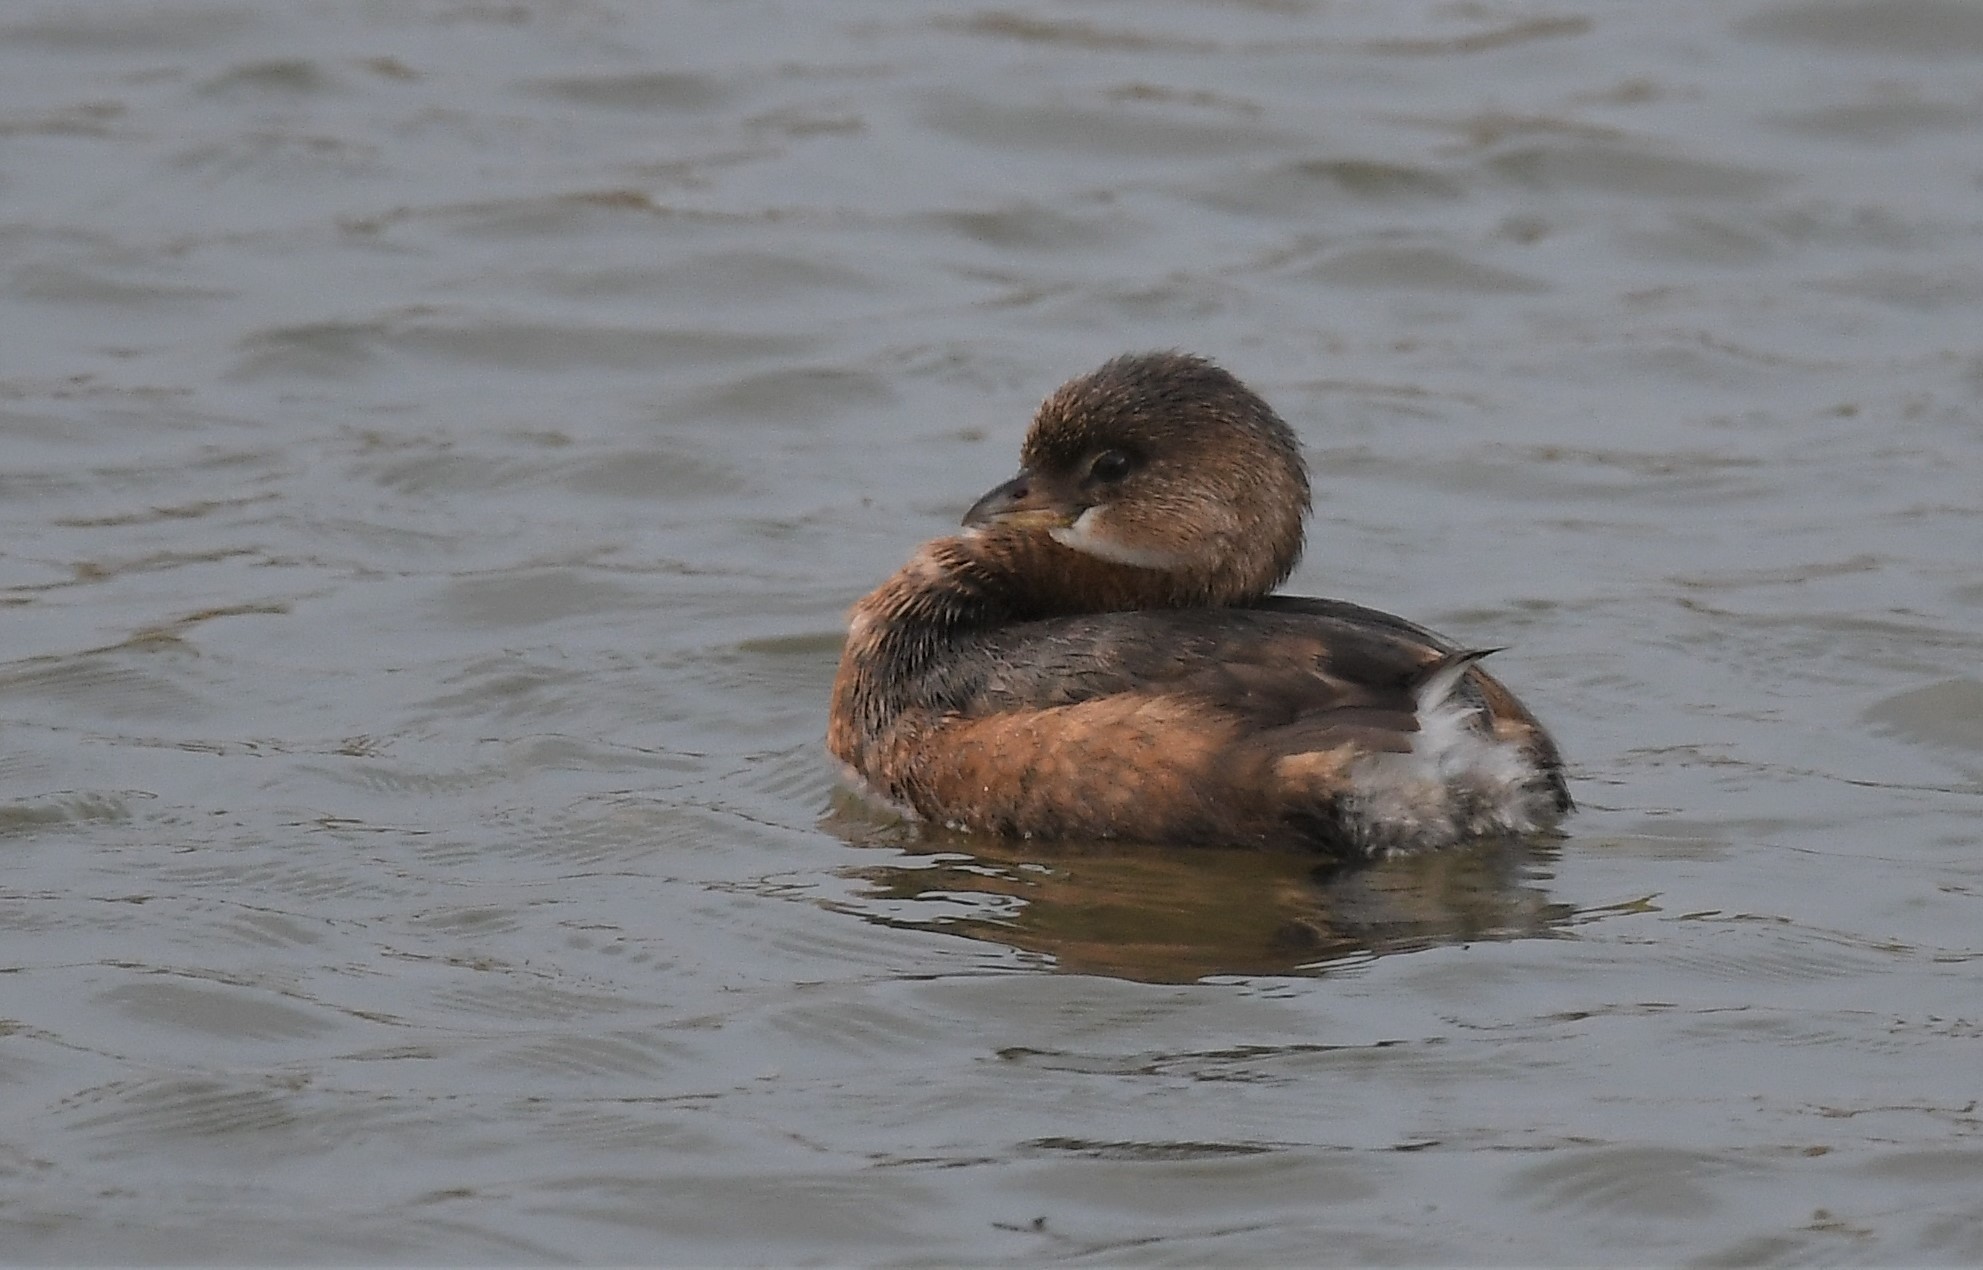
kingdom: Animalia
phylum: Chordata
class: Aves
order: Podicipediformes
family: Podicipedidae
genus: Podilymbus
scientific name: Podilymbus podiceps
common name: Pied-billed grebe
